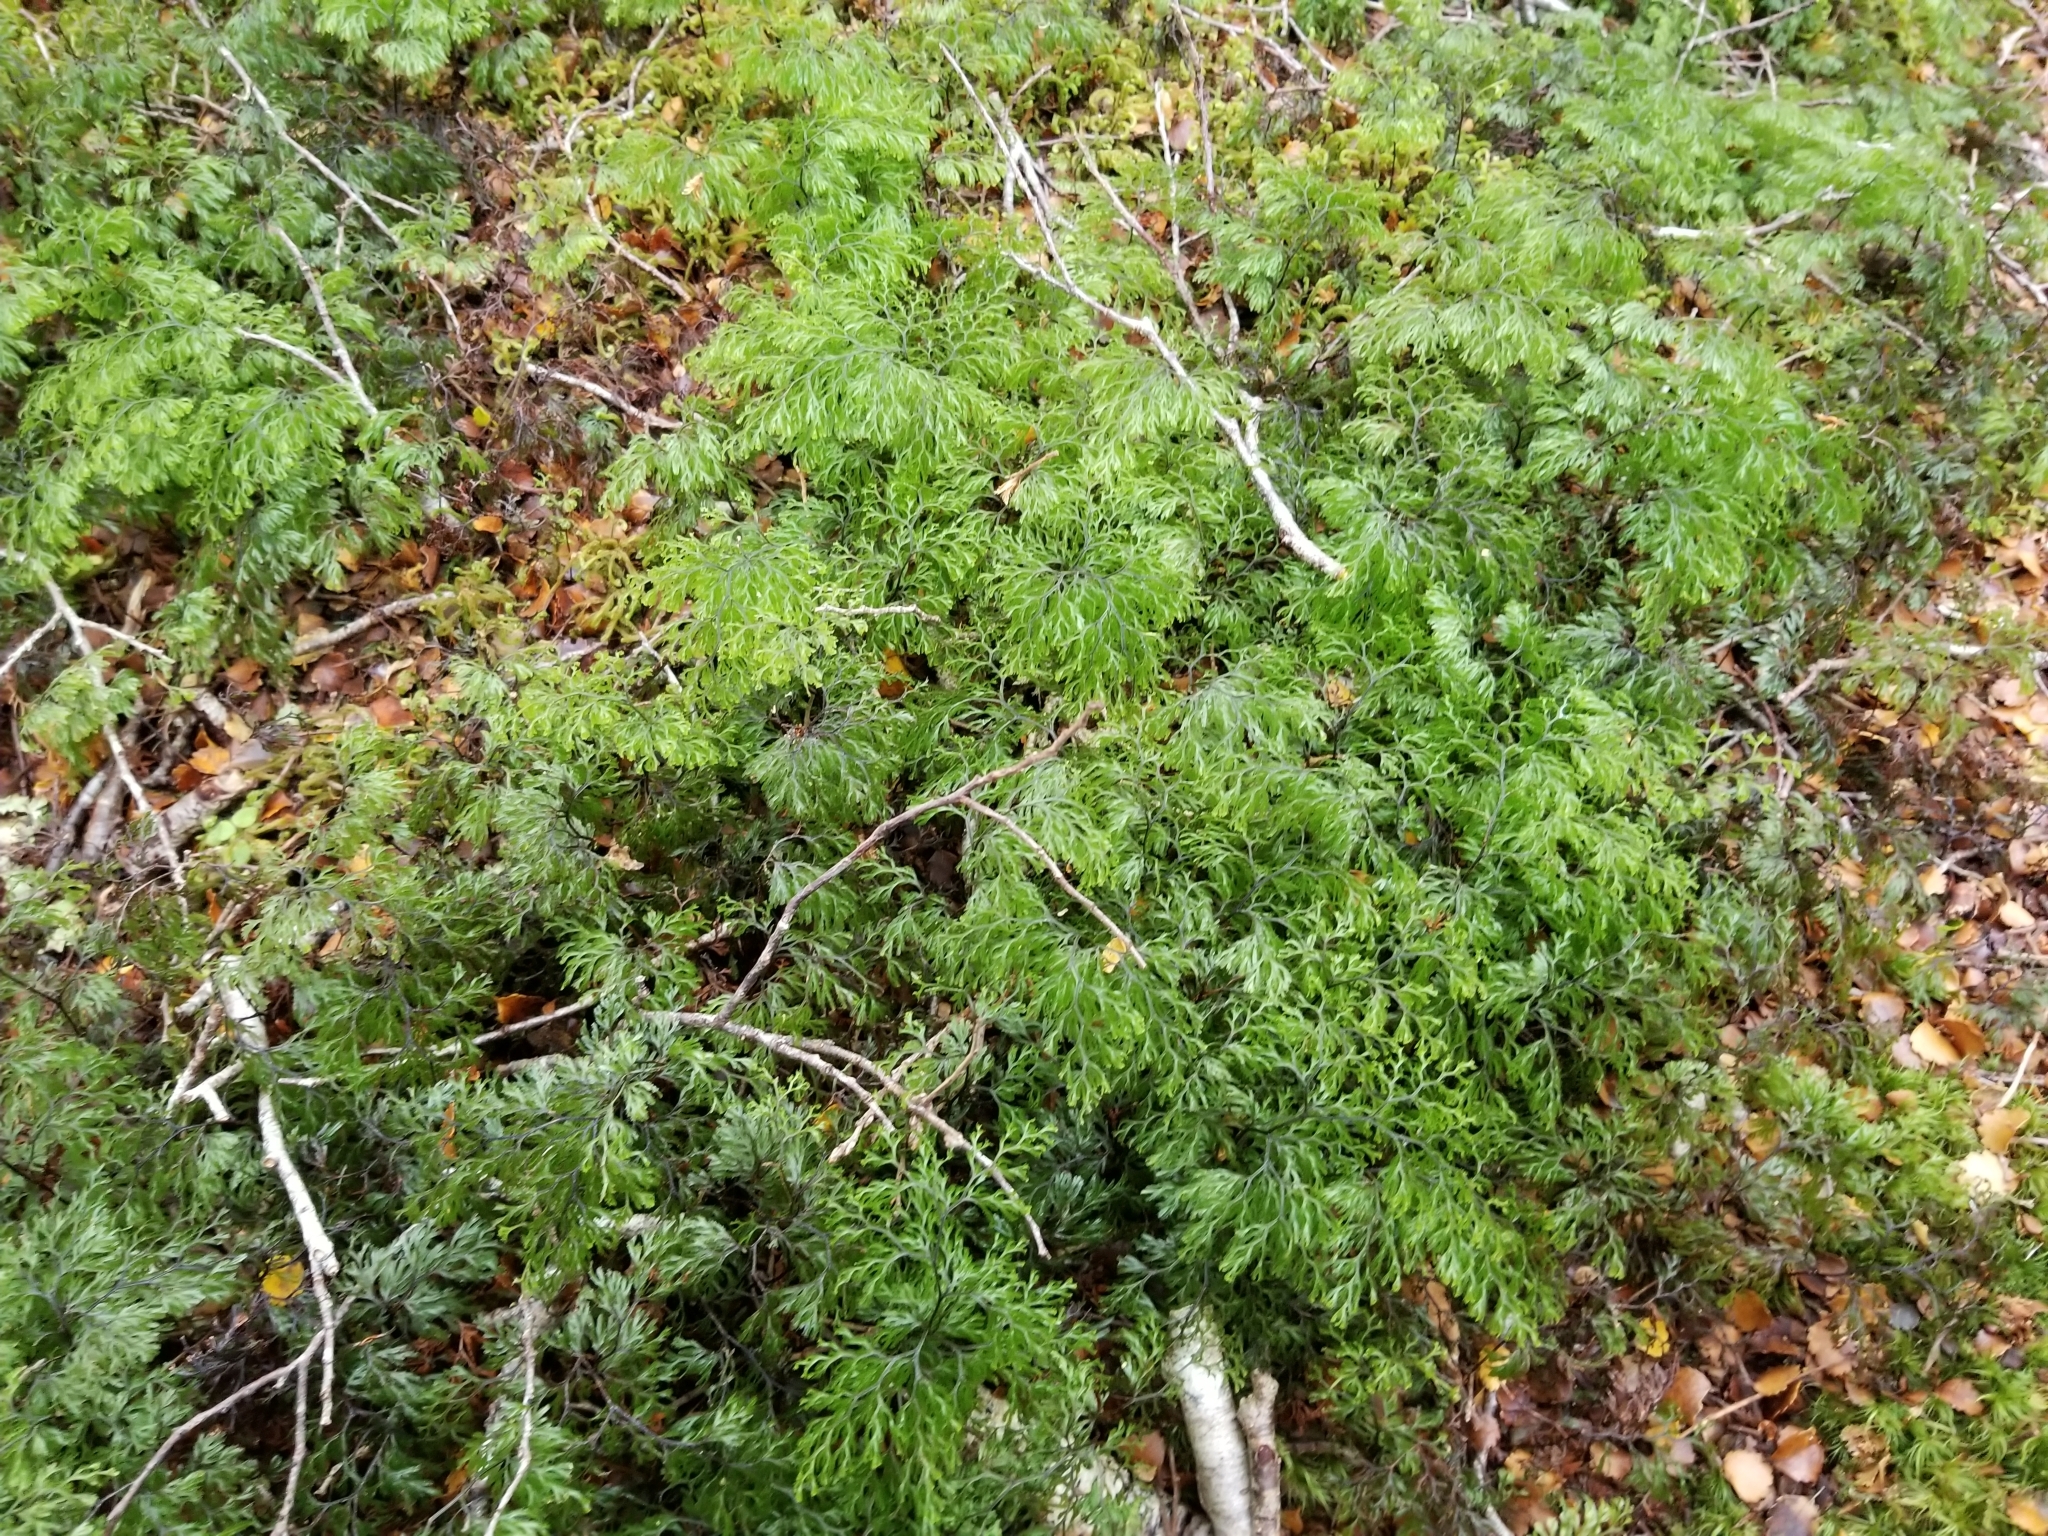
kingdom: Plantae
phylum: Tracheophyta
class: Polypodiopsida
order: Hymenophyllales
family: Hymenophyllaceae
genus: Hymenophyllum
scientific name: Hymenophyllum
